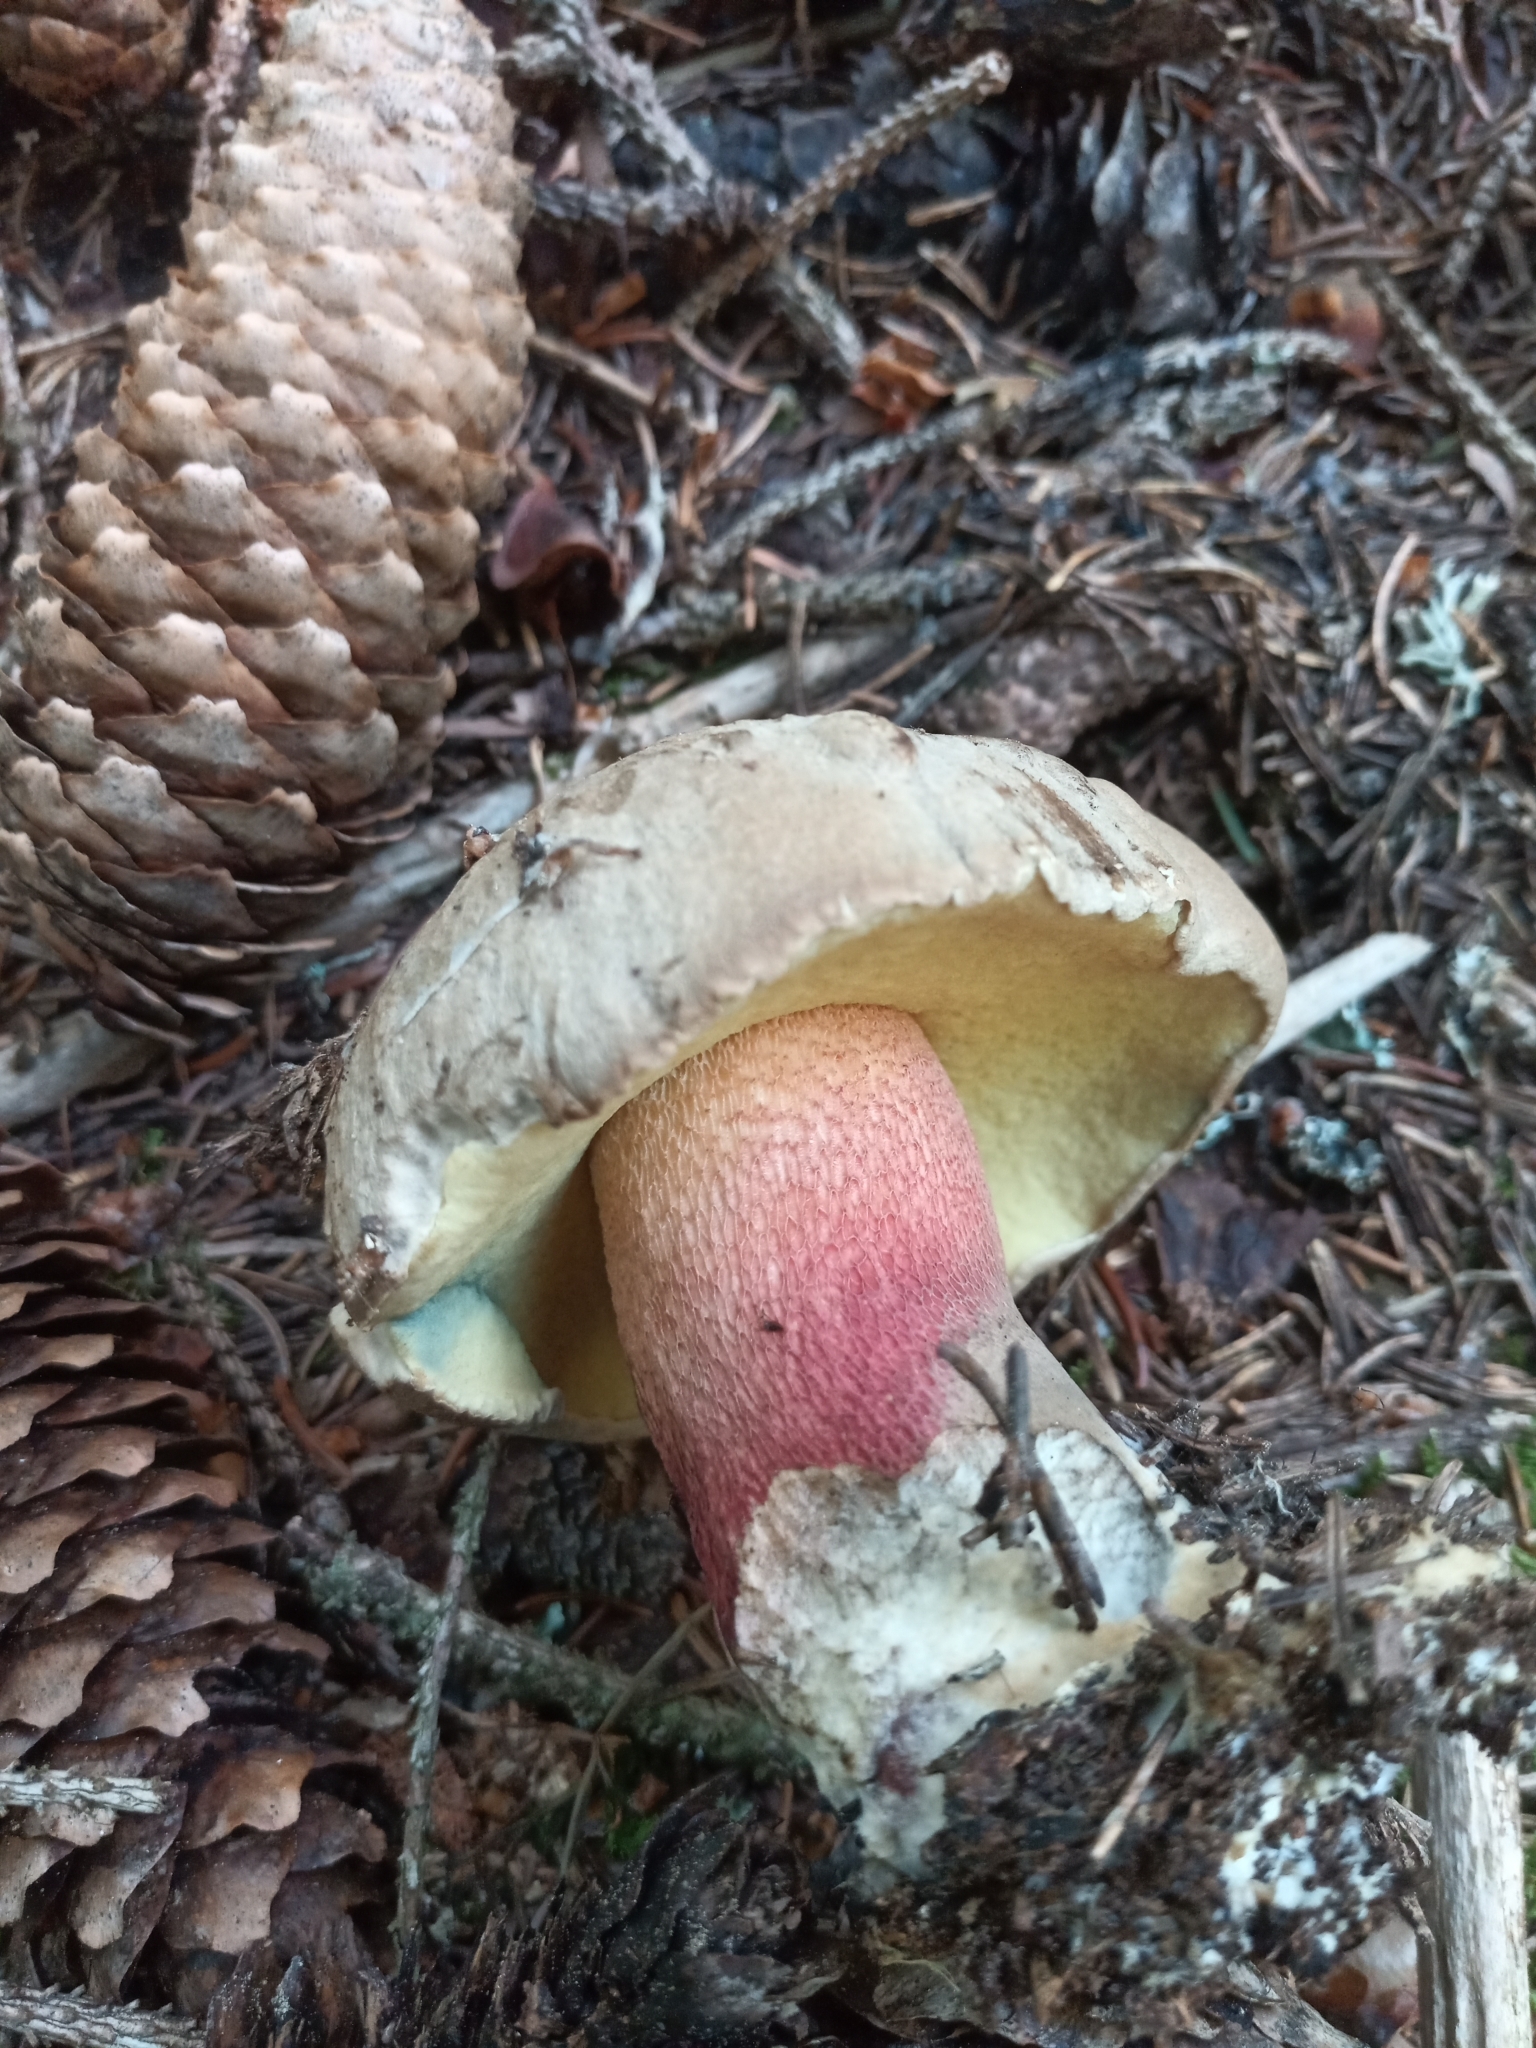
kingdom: Fungi
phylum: Basidiomycota
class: Agaricomycetes
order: Boletales
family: Boletaceae
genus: Caloboletus
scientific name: Caloboletus calopus
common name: Bitter beech bolete
